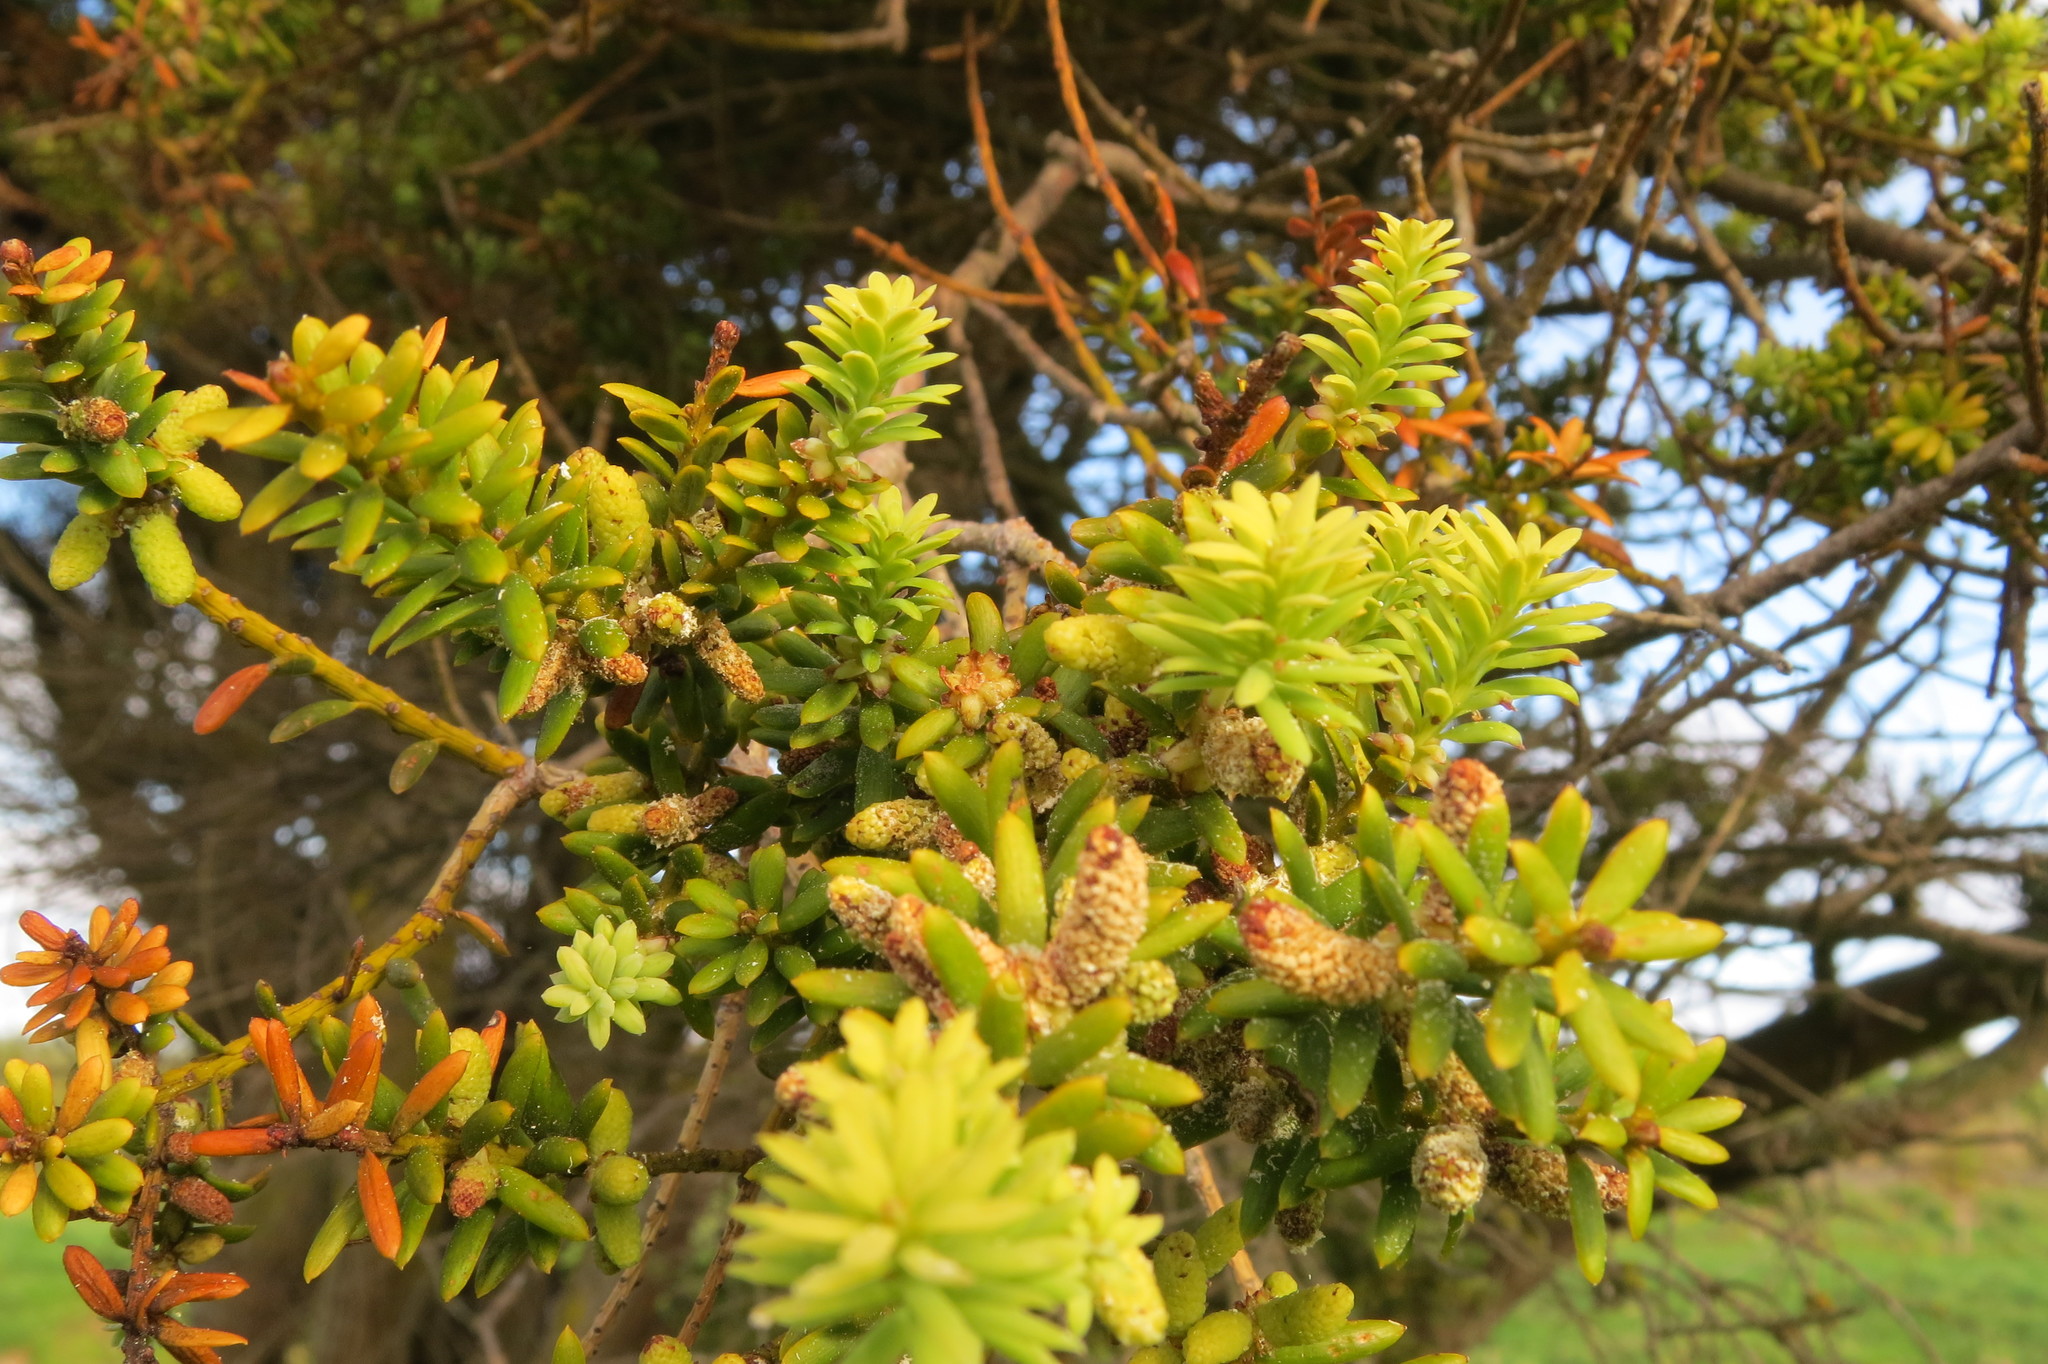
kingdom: Plantae
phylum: Tracheophyta
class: Pinopsida
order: Pinales
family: Podocarpaceae
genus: Podocarpus
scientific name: Podocarpus totara
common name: Totara
